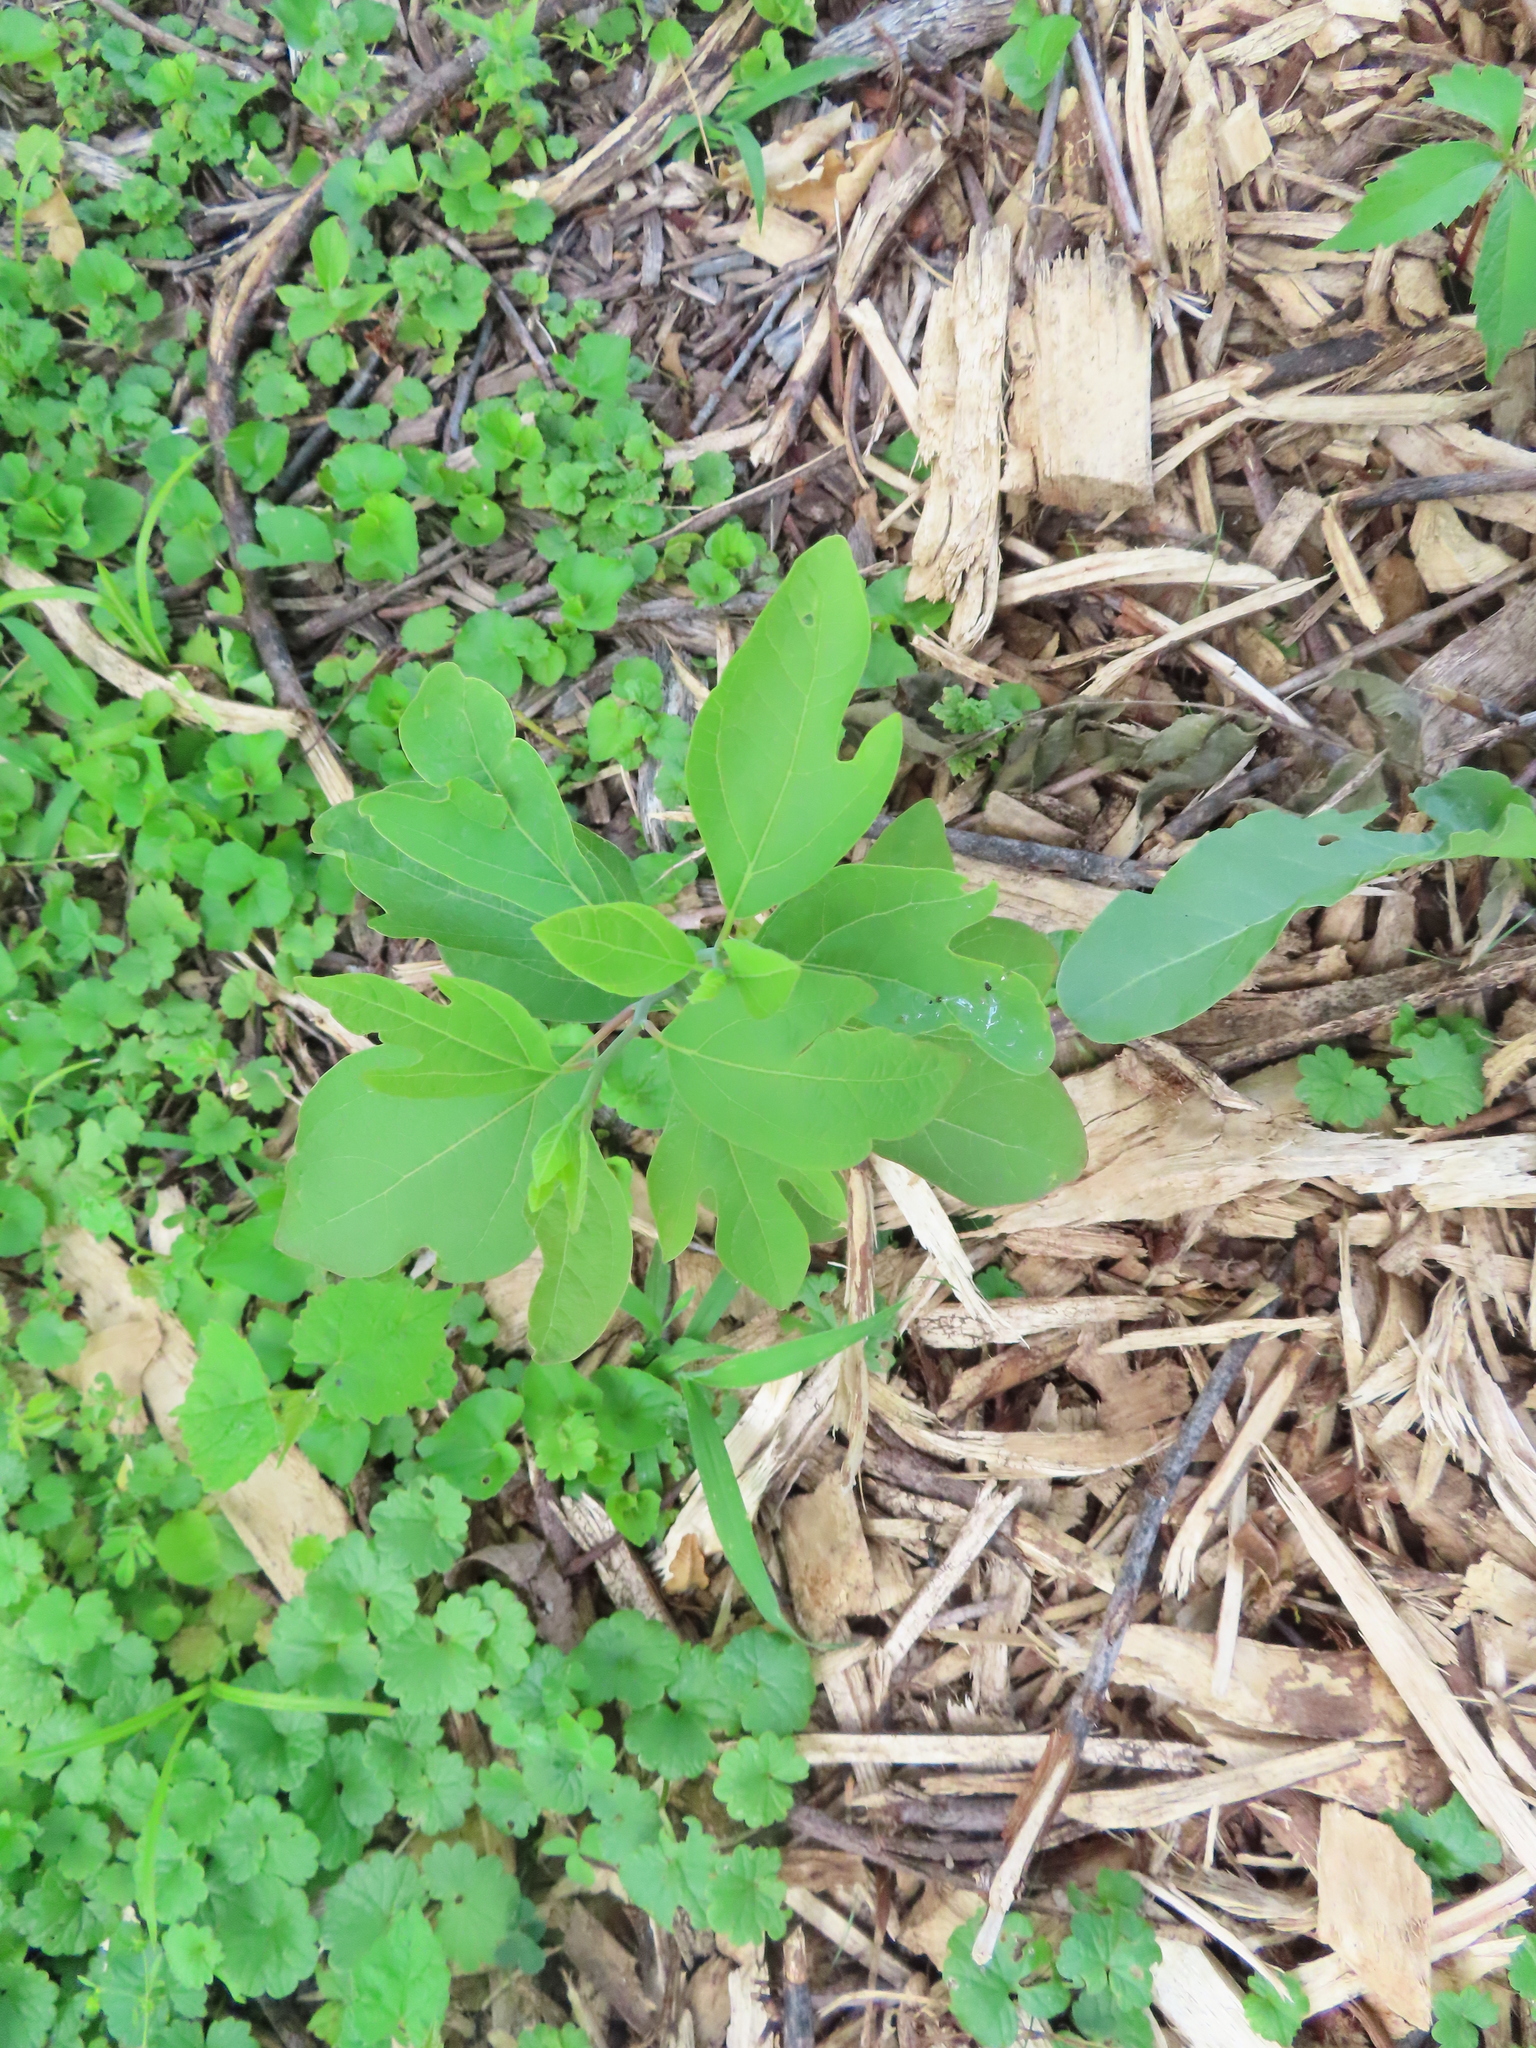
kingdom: Plantae
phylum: Tracheophyta
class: Magnoliopsida
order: Laurales
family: Lauraceae
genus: Sassafras
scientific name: Sassafras albidum
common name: Sassafras
